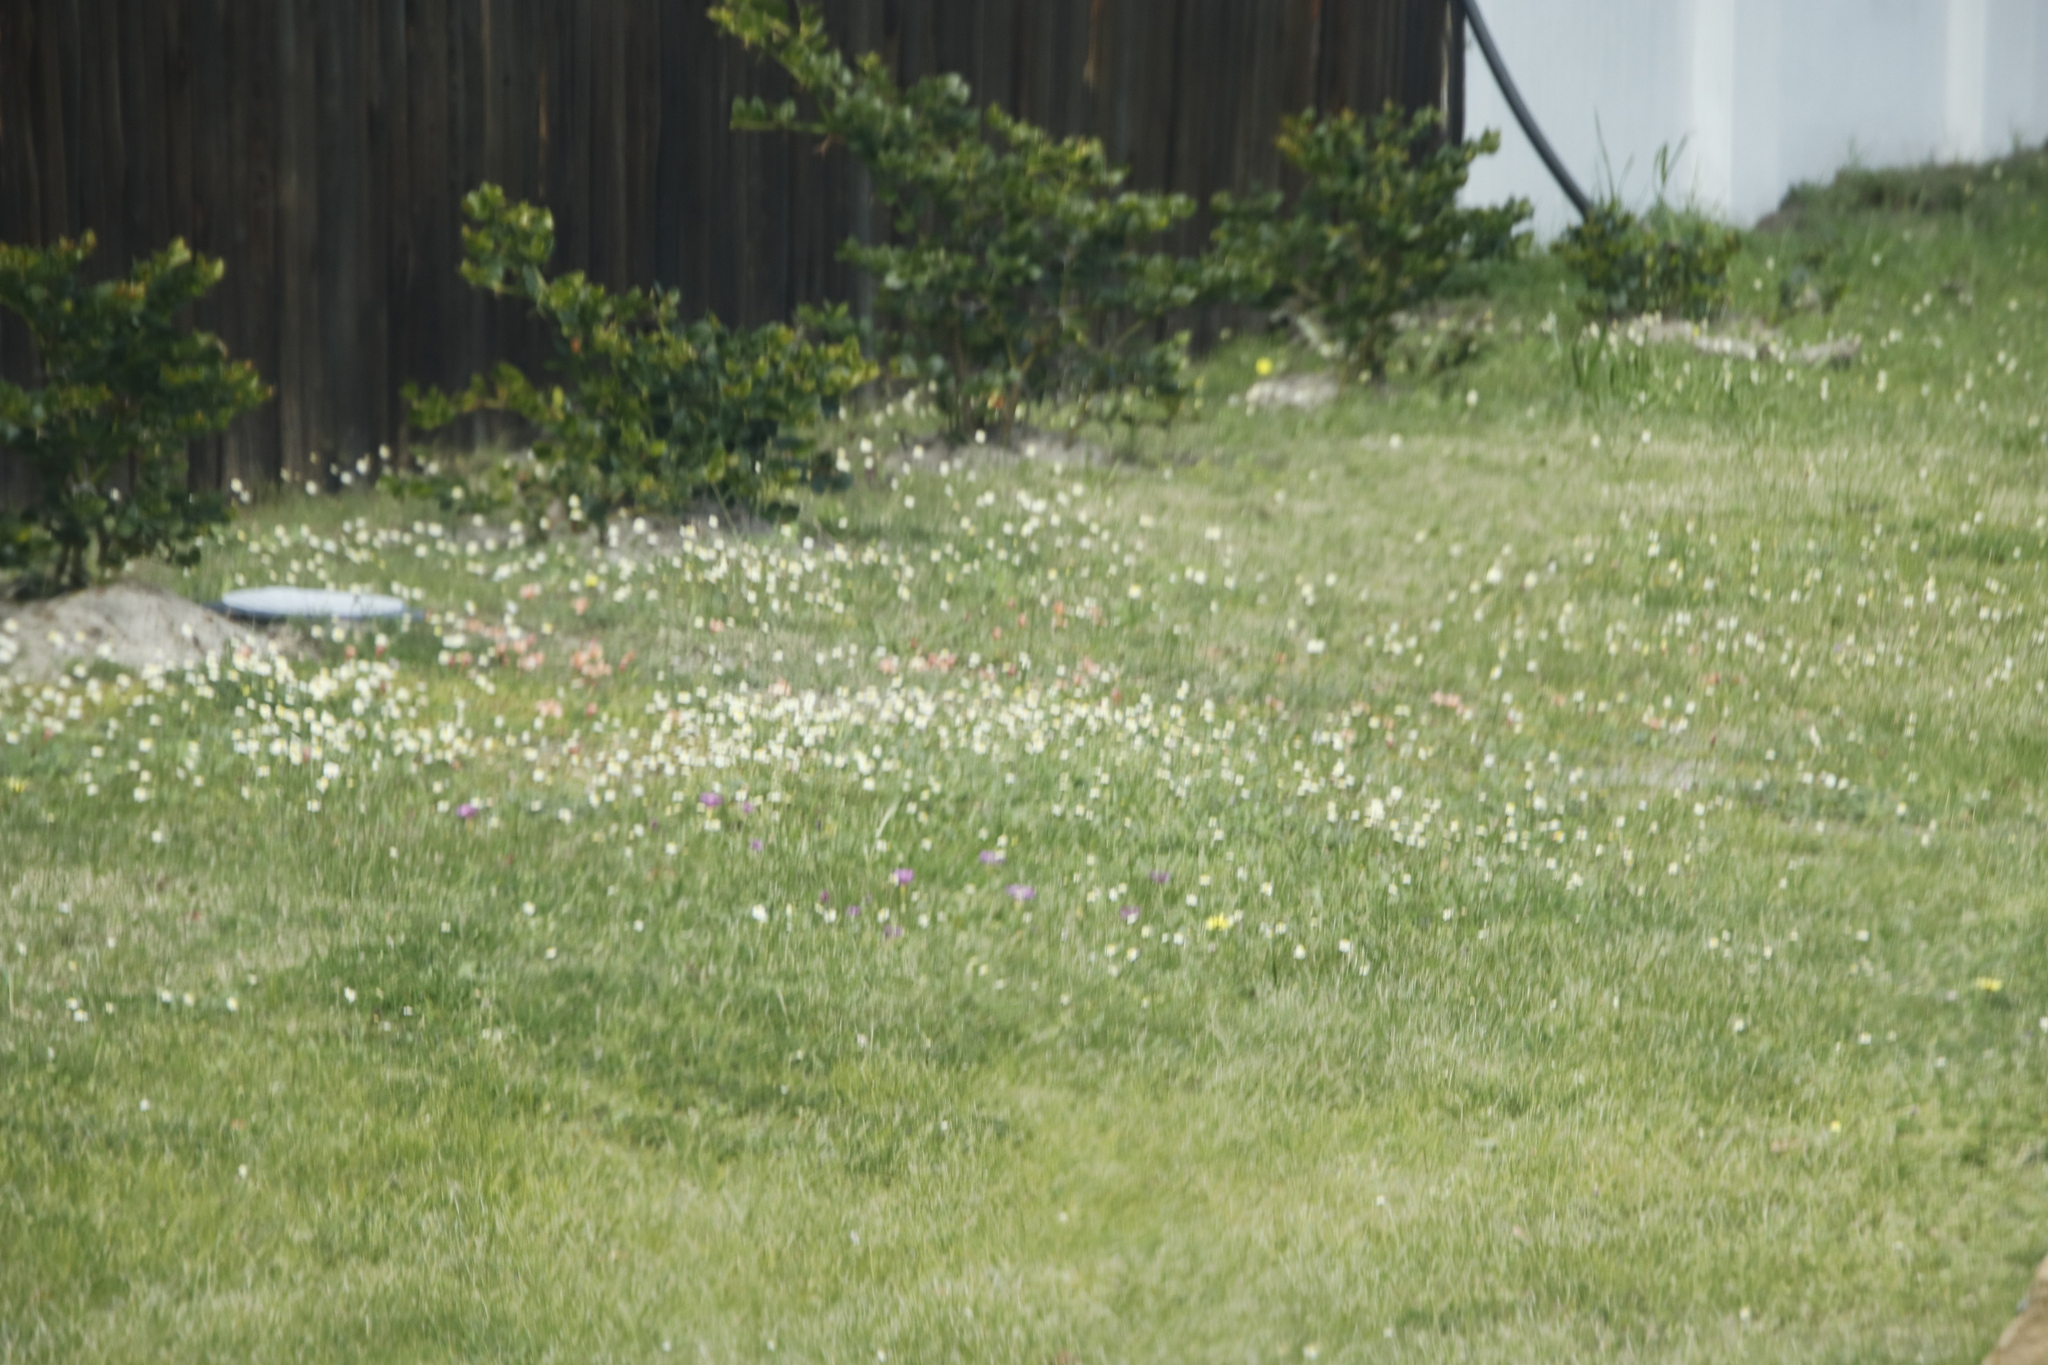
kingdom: Plantae
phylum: Tracheophyta
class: Magnoliopsida
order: Asterales
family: Asteraceae
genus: Cotula
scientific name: Cotula turbinata
